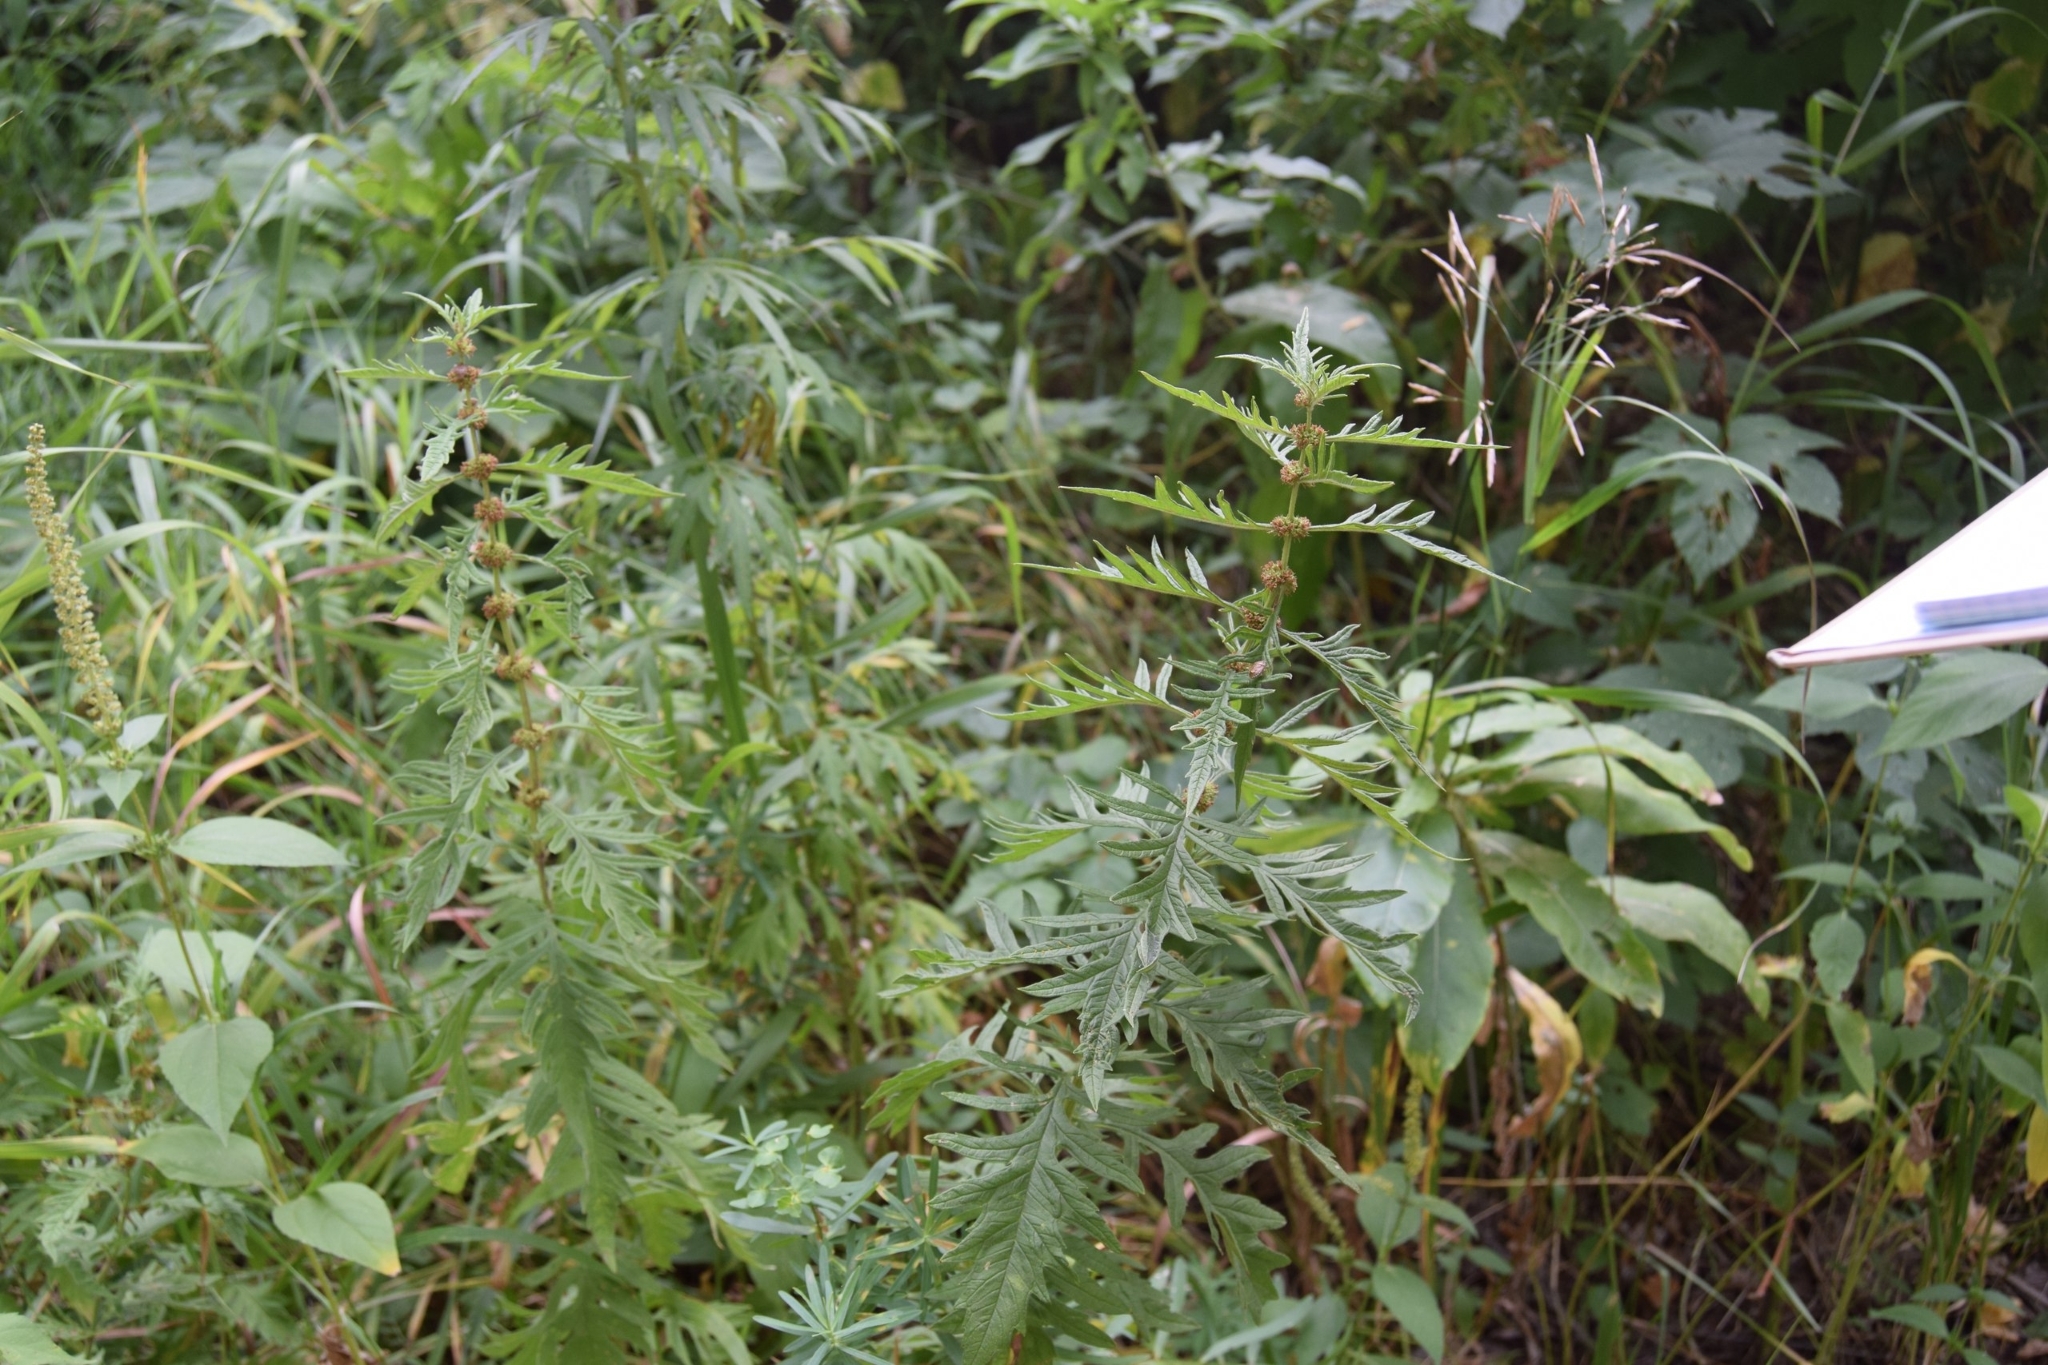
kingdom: Plantae
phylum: Tracheophyta
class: Magnoliopsida
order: Lamiales
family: Lamiaceae
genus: Lycopus
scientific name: Lycopus exaltatus
